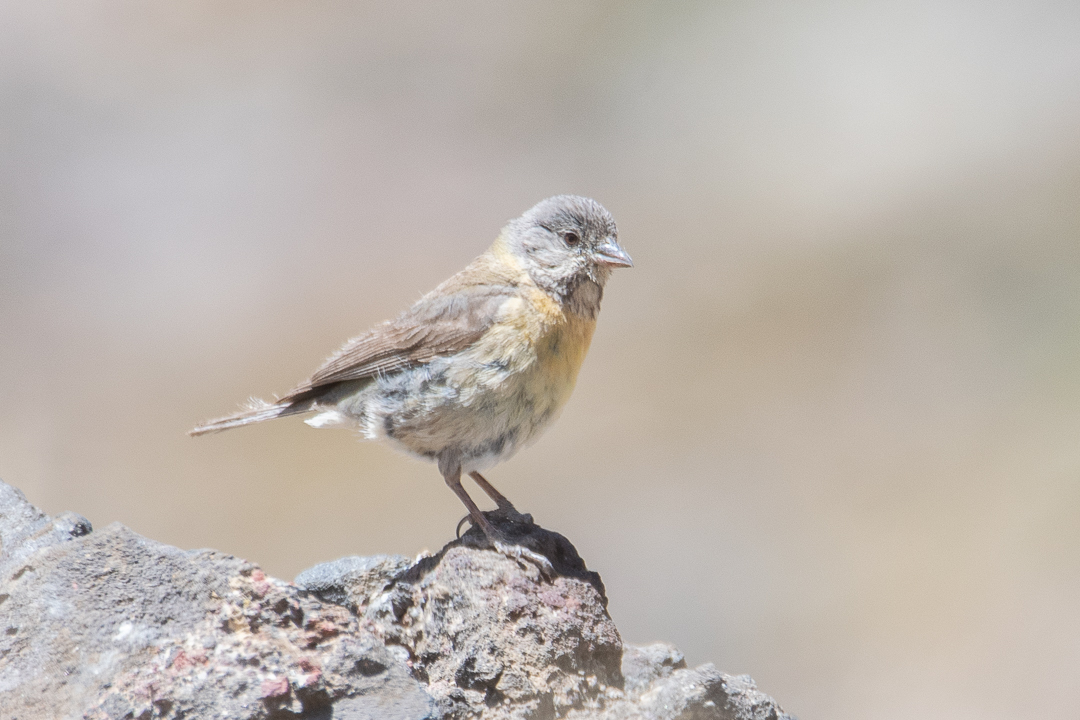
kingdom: Animalia
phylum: Chordata
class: Aves
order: Passeriformes
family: Thraupidae
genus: Phrygilus
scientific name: Phrygilus gayi
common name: Grey-hooded sierra finch
